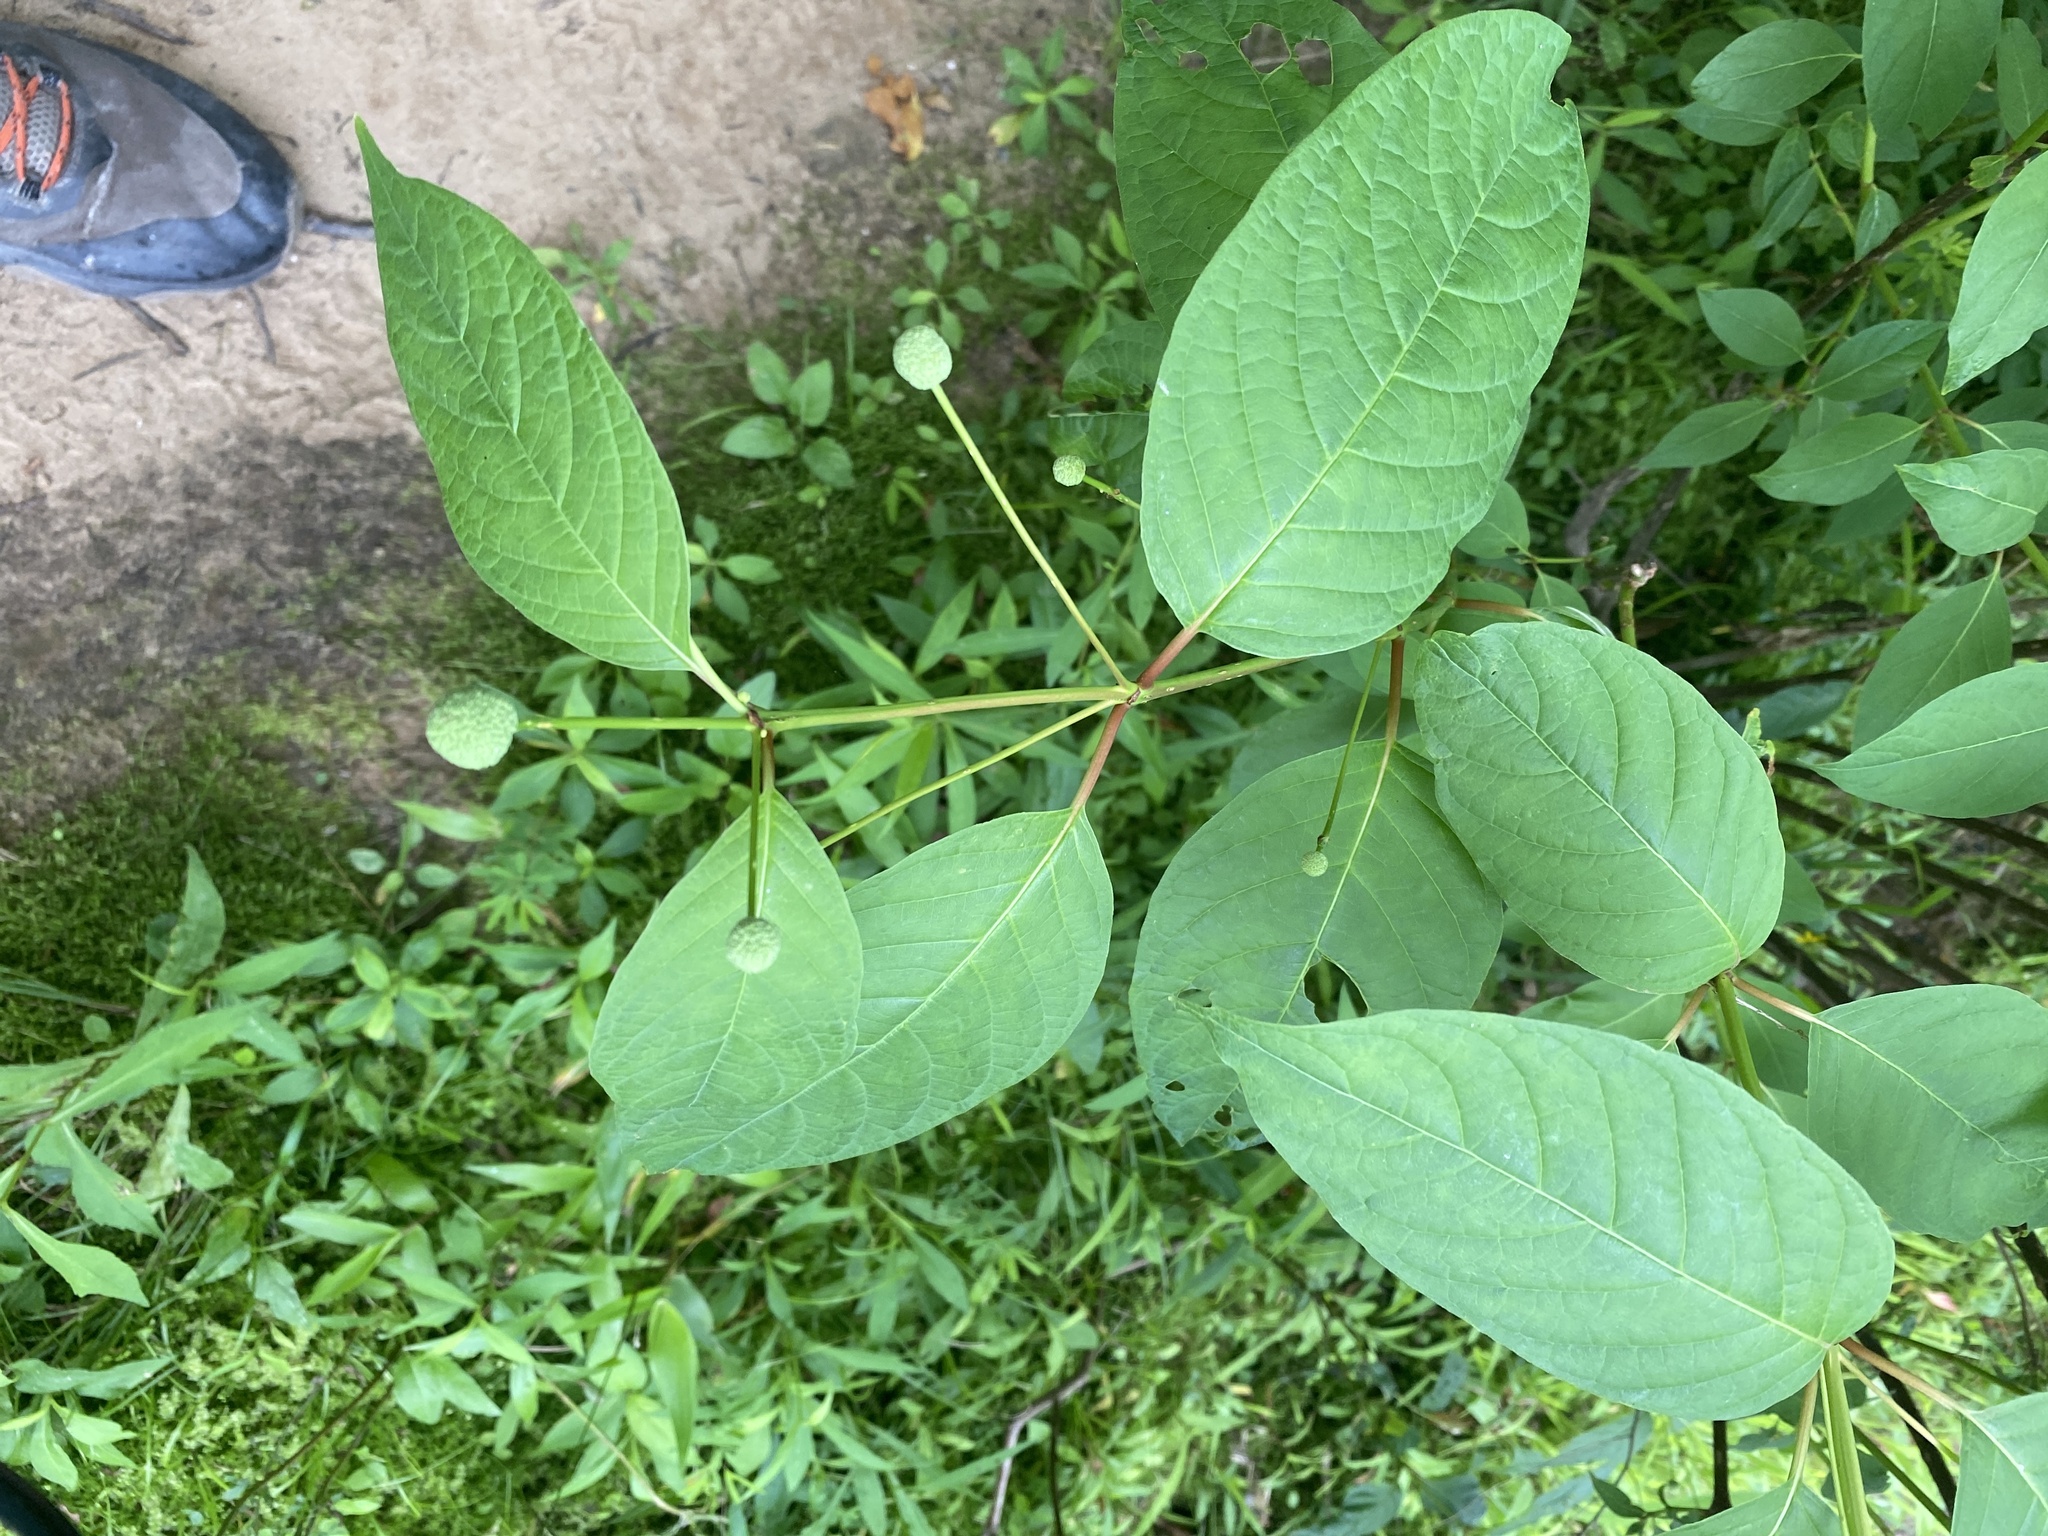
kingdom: Plantae
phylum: Tracheophyta
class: Magnoliopsida
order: Gentianales
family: Rubiaceae
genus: Cephalanthus
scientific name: Cephalanthus occidentalis
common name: Button-willow
